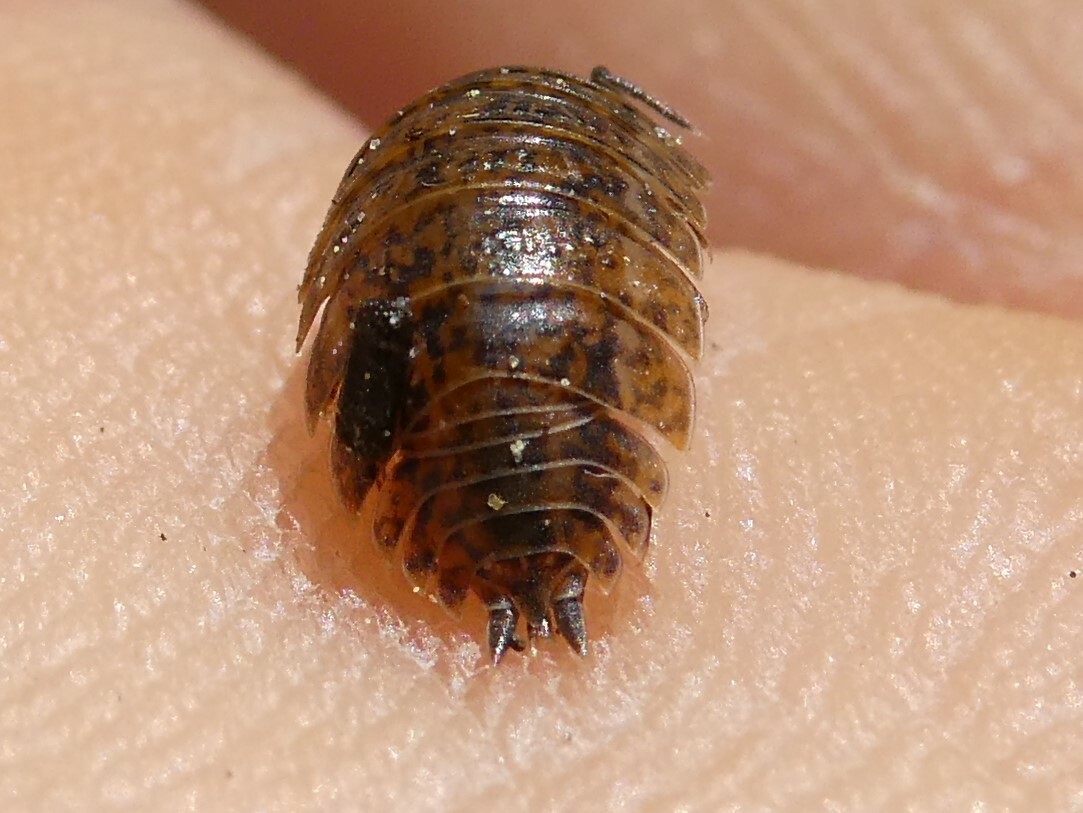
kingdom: Animalia
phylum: Arthropoda
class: Malacostraca
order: Isopoda
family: Trachelipodidae
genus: Trachelipus
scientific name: Trachelipus rathkii
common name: Isopod
